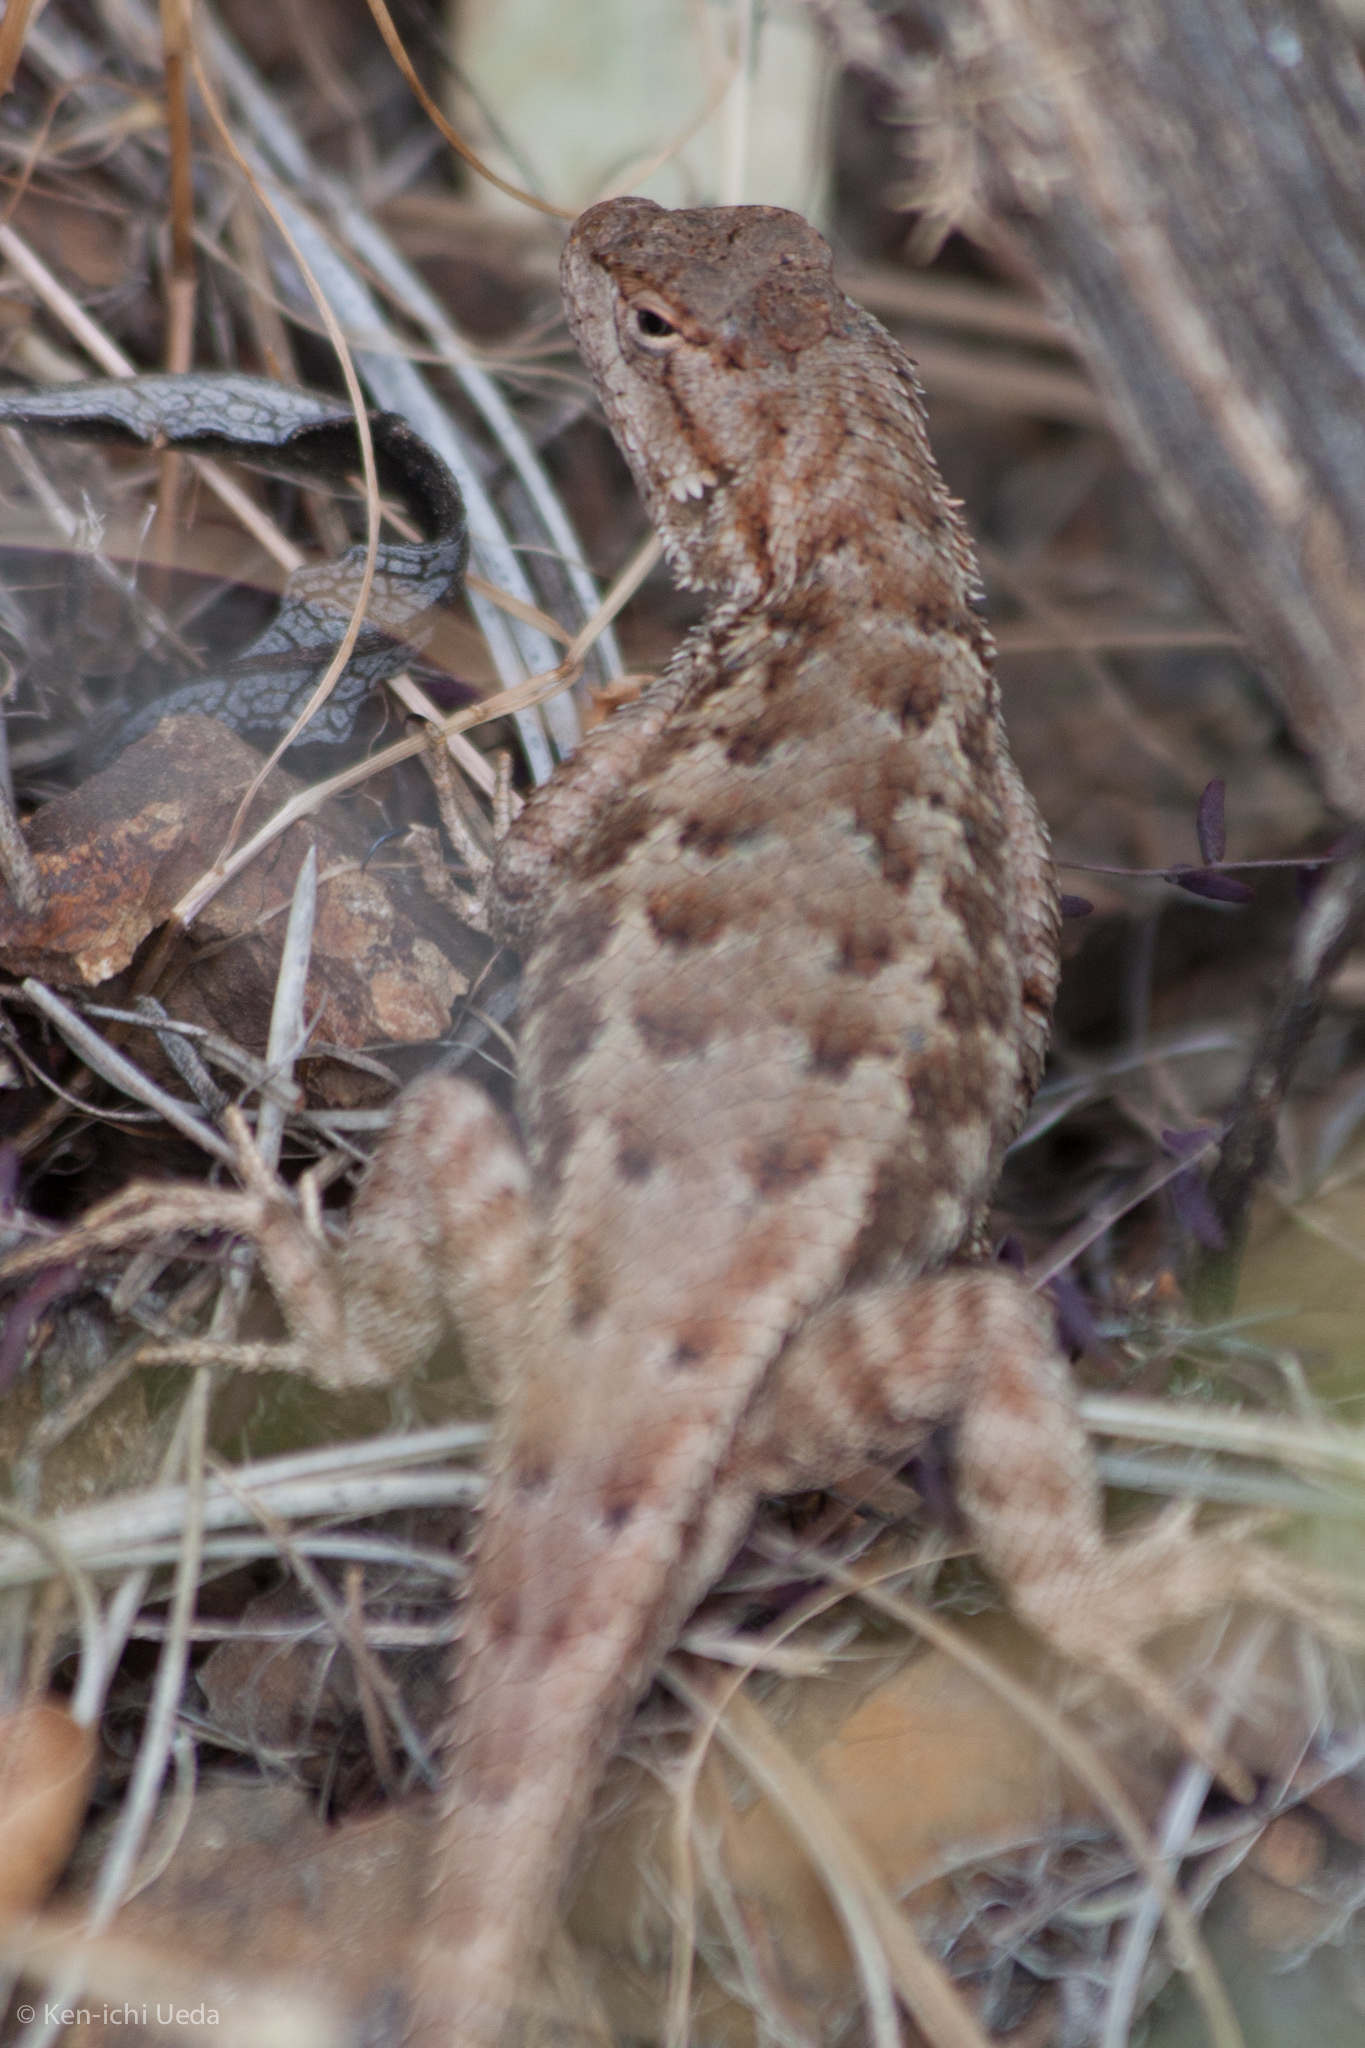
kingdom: Animalia
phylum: Chordata
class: Squamata
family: Phrynosomatidae
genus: Sceloporus
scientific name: Sceloporus occidentalis
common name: Western fence lizard
